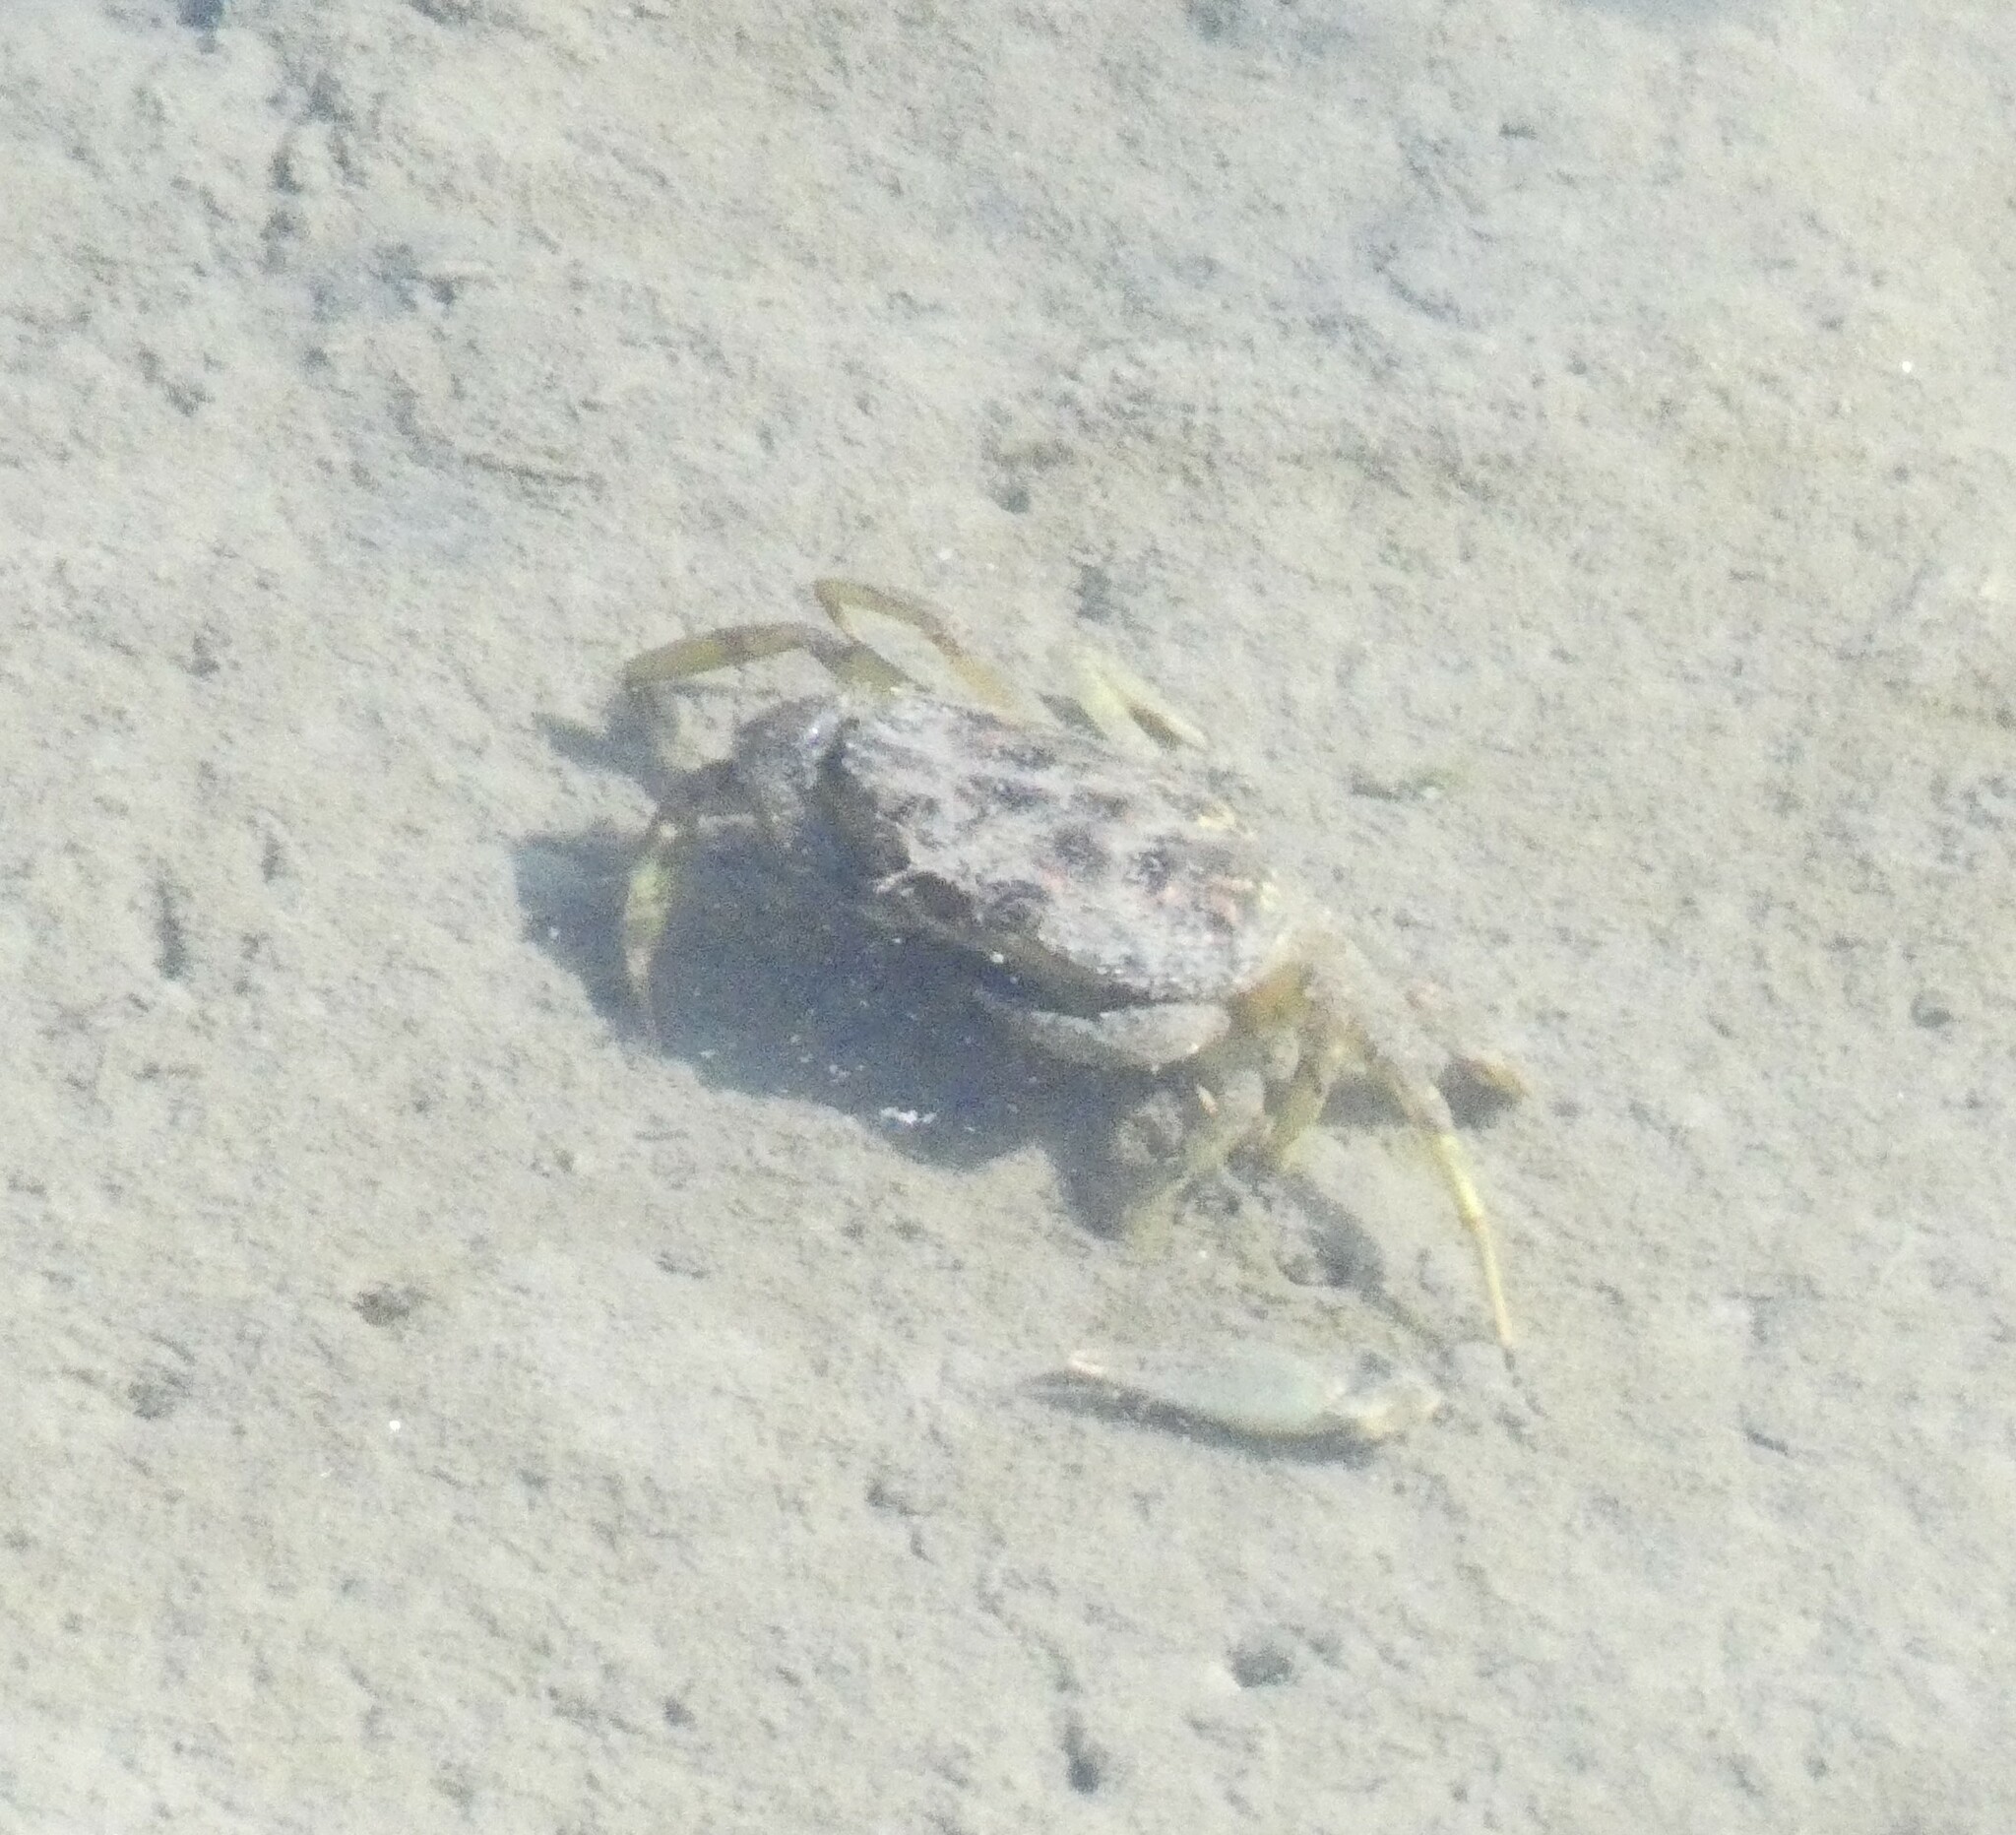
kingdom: Animalia
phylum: Arthropoda
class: Malacostraca
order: Decapoda
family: Carcinidae
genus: Carcinus
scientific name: Carcinus maenas
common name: European green crab
